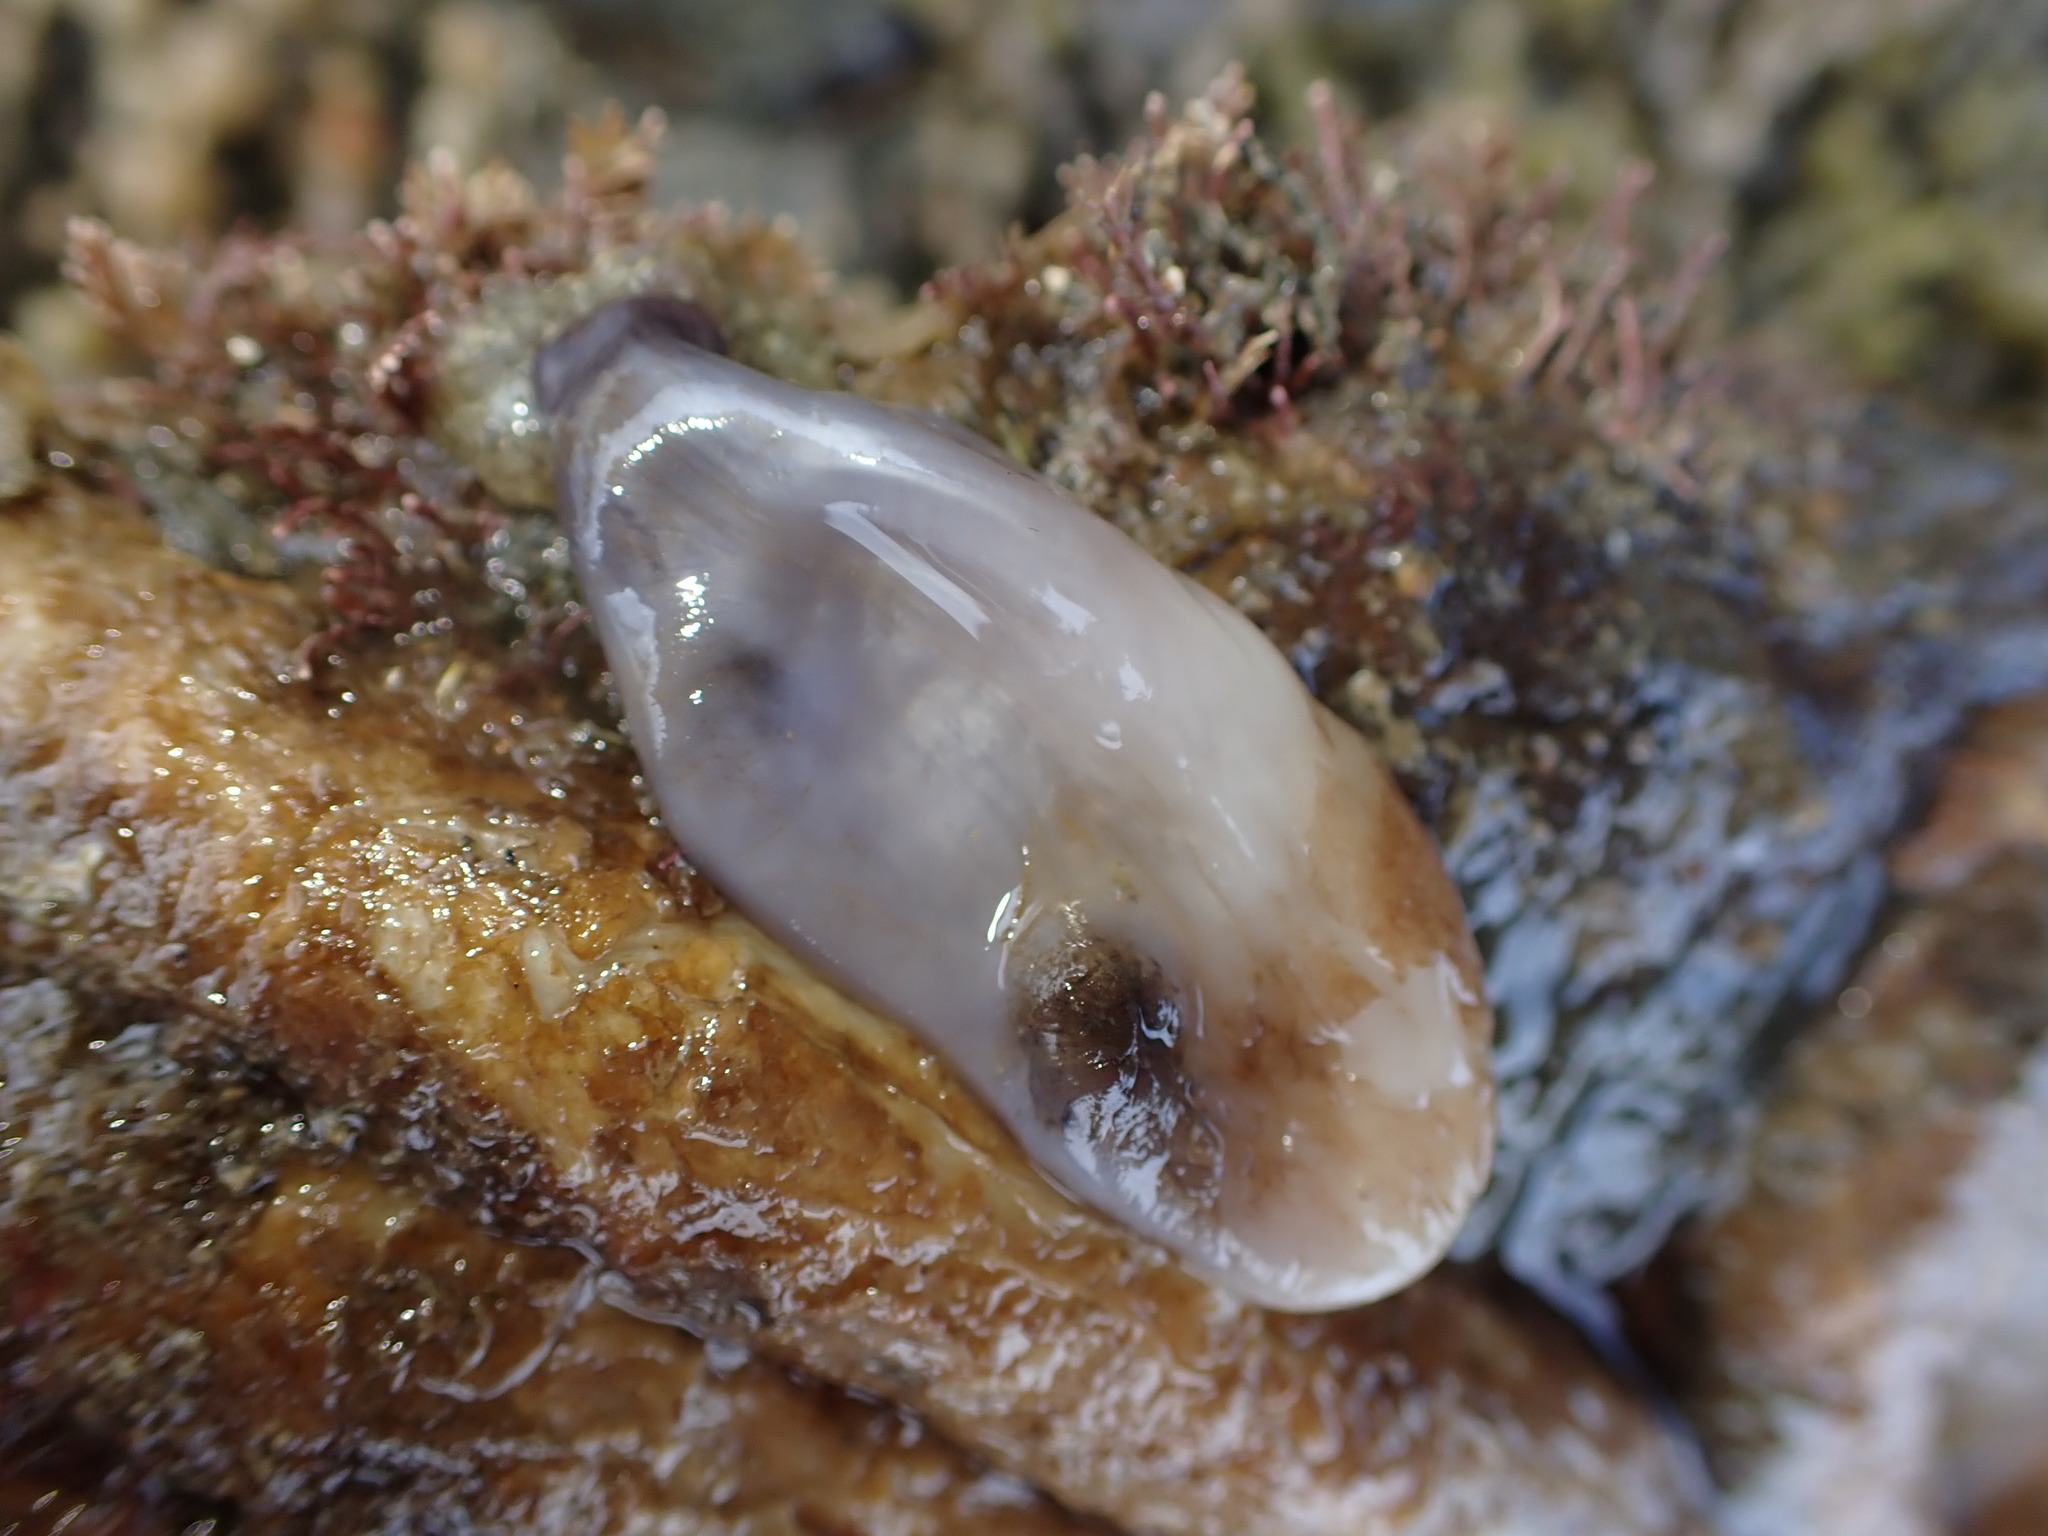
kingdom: Animalia
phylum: Chordata
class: Ascidiacea
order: Stolidobranchia
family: Styelidae
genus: Asterocarpa
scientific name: Asterocarpa coerulea
